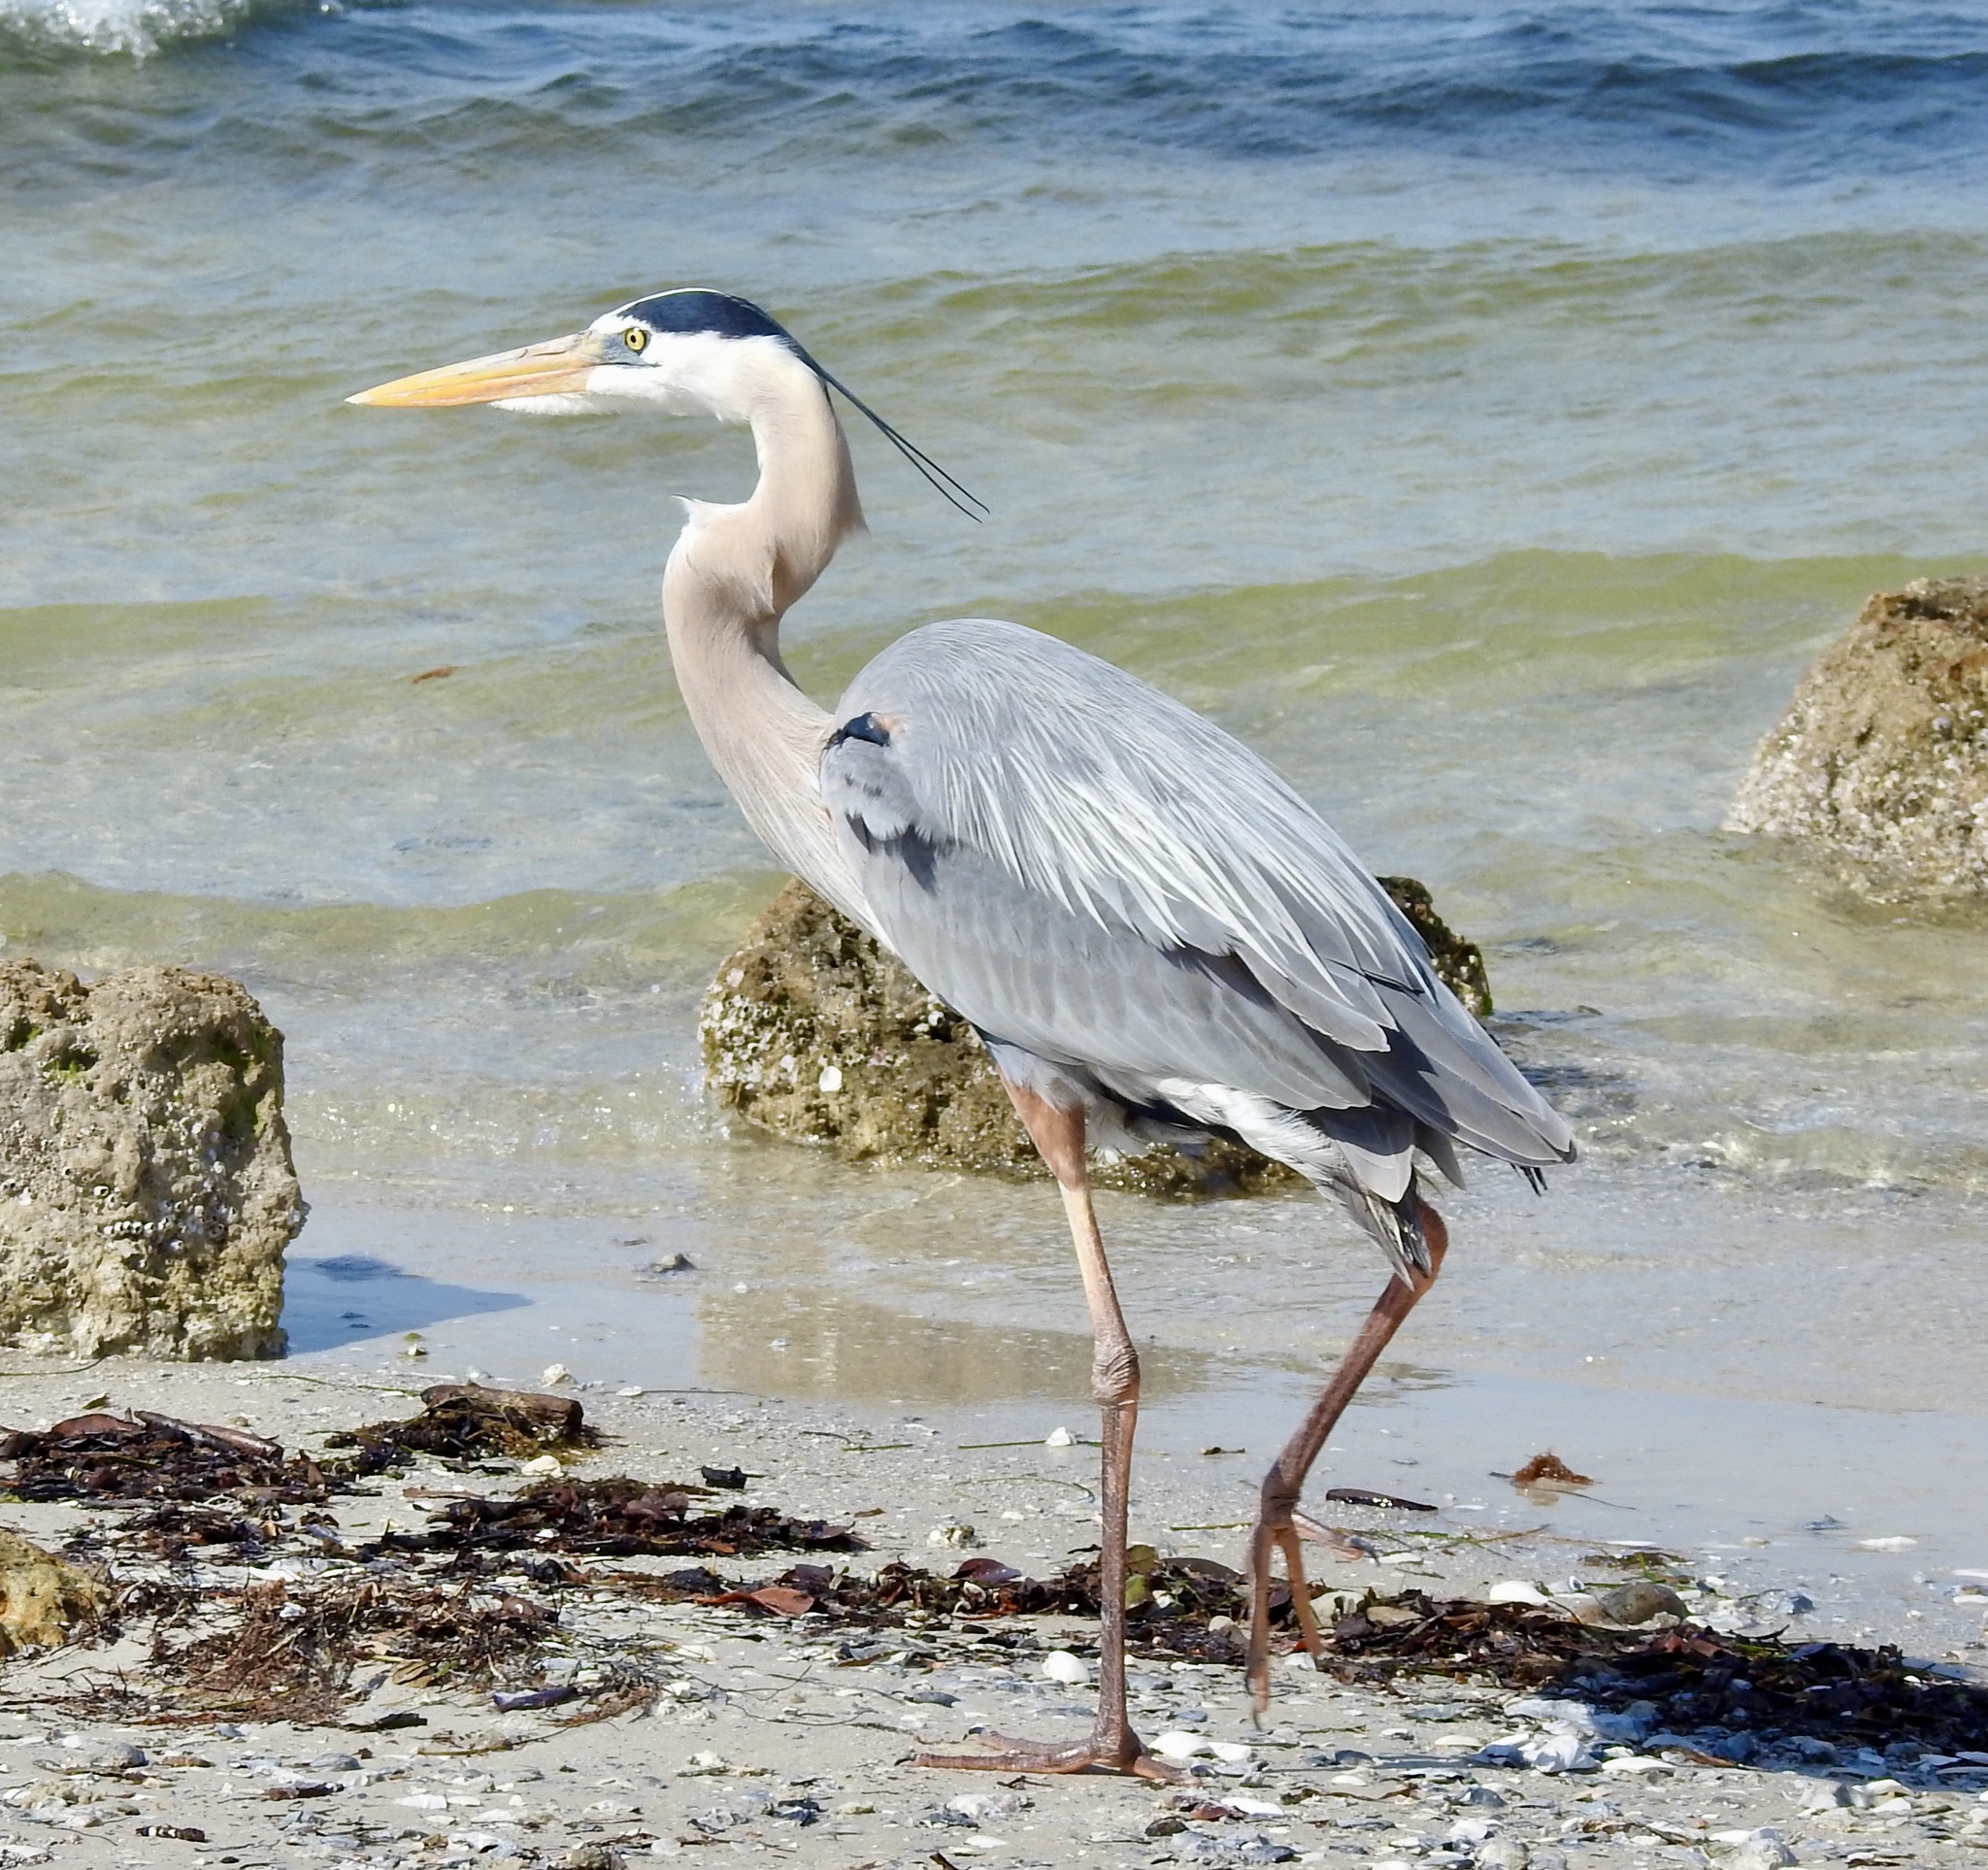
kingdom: Animalia
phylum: Chordata
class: Aves
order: Pelecaniformes
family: Ardeidae
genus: Ardea
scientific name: Ardea herodias
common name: Great blue heron
